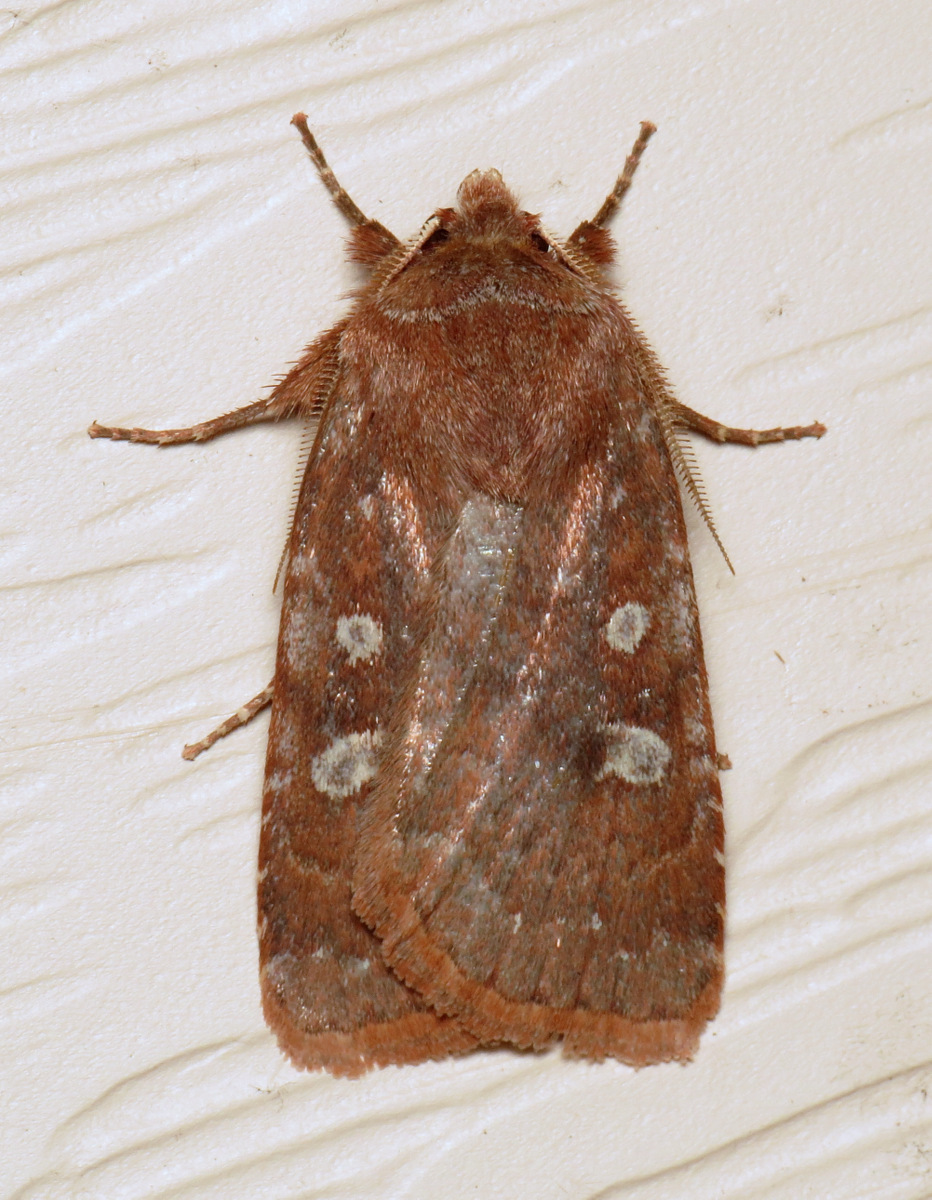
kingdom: Animalia
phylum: Arthropoda
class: Insecta
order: Lepidoptera
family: Noctuidae
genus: Cerastis
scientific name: Cerastis tenebrifera
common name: Reddish speckled dart
